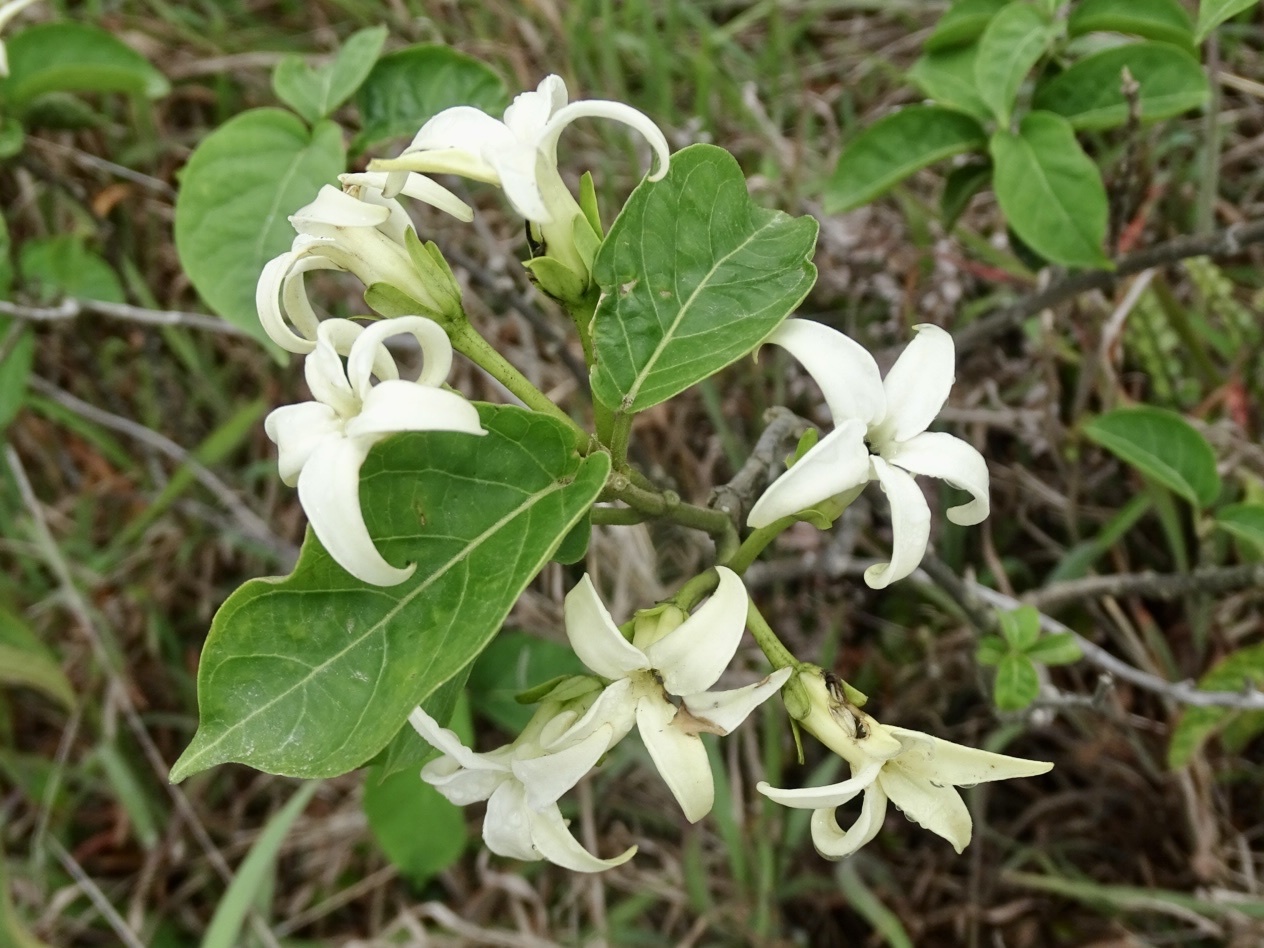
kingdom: Plantae
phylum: Tracheophyta
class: Magnoliopsida
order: Gentianales
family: Apocynaceae
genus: Jasminanthes
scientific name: Jasminanthes mucronata
